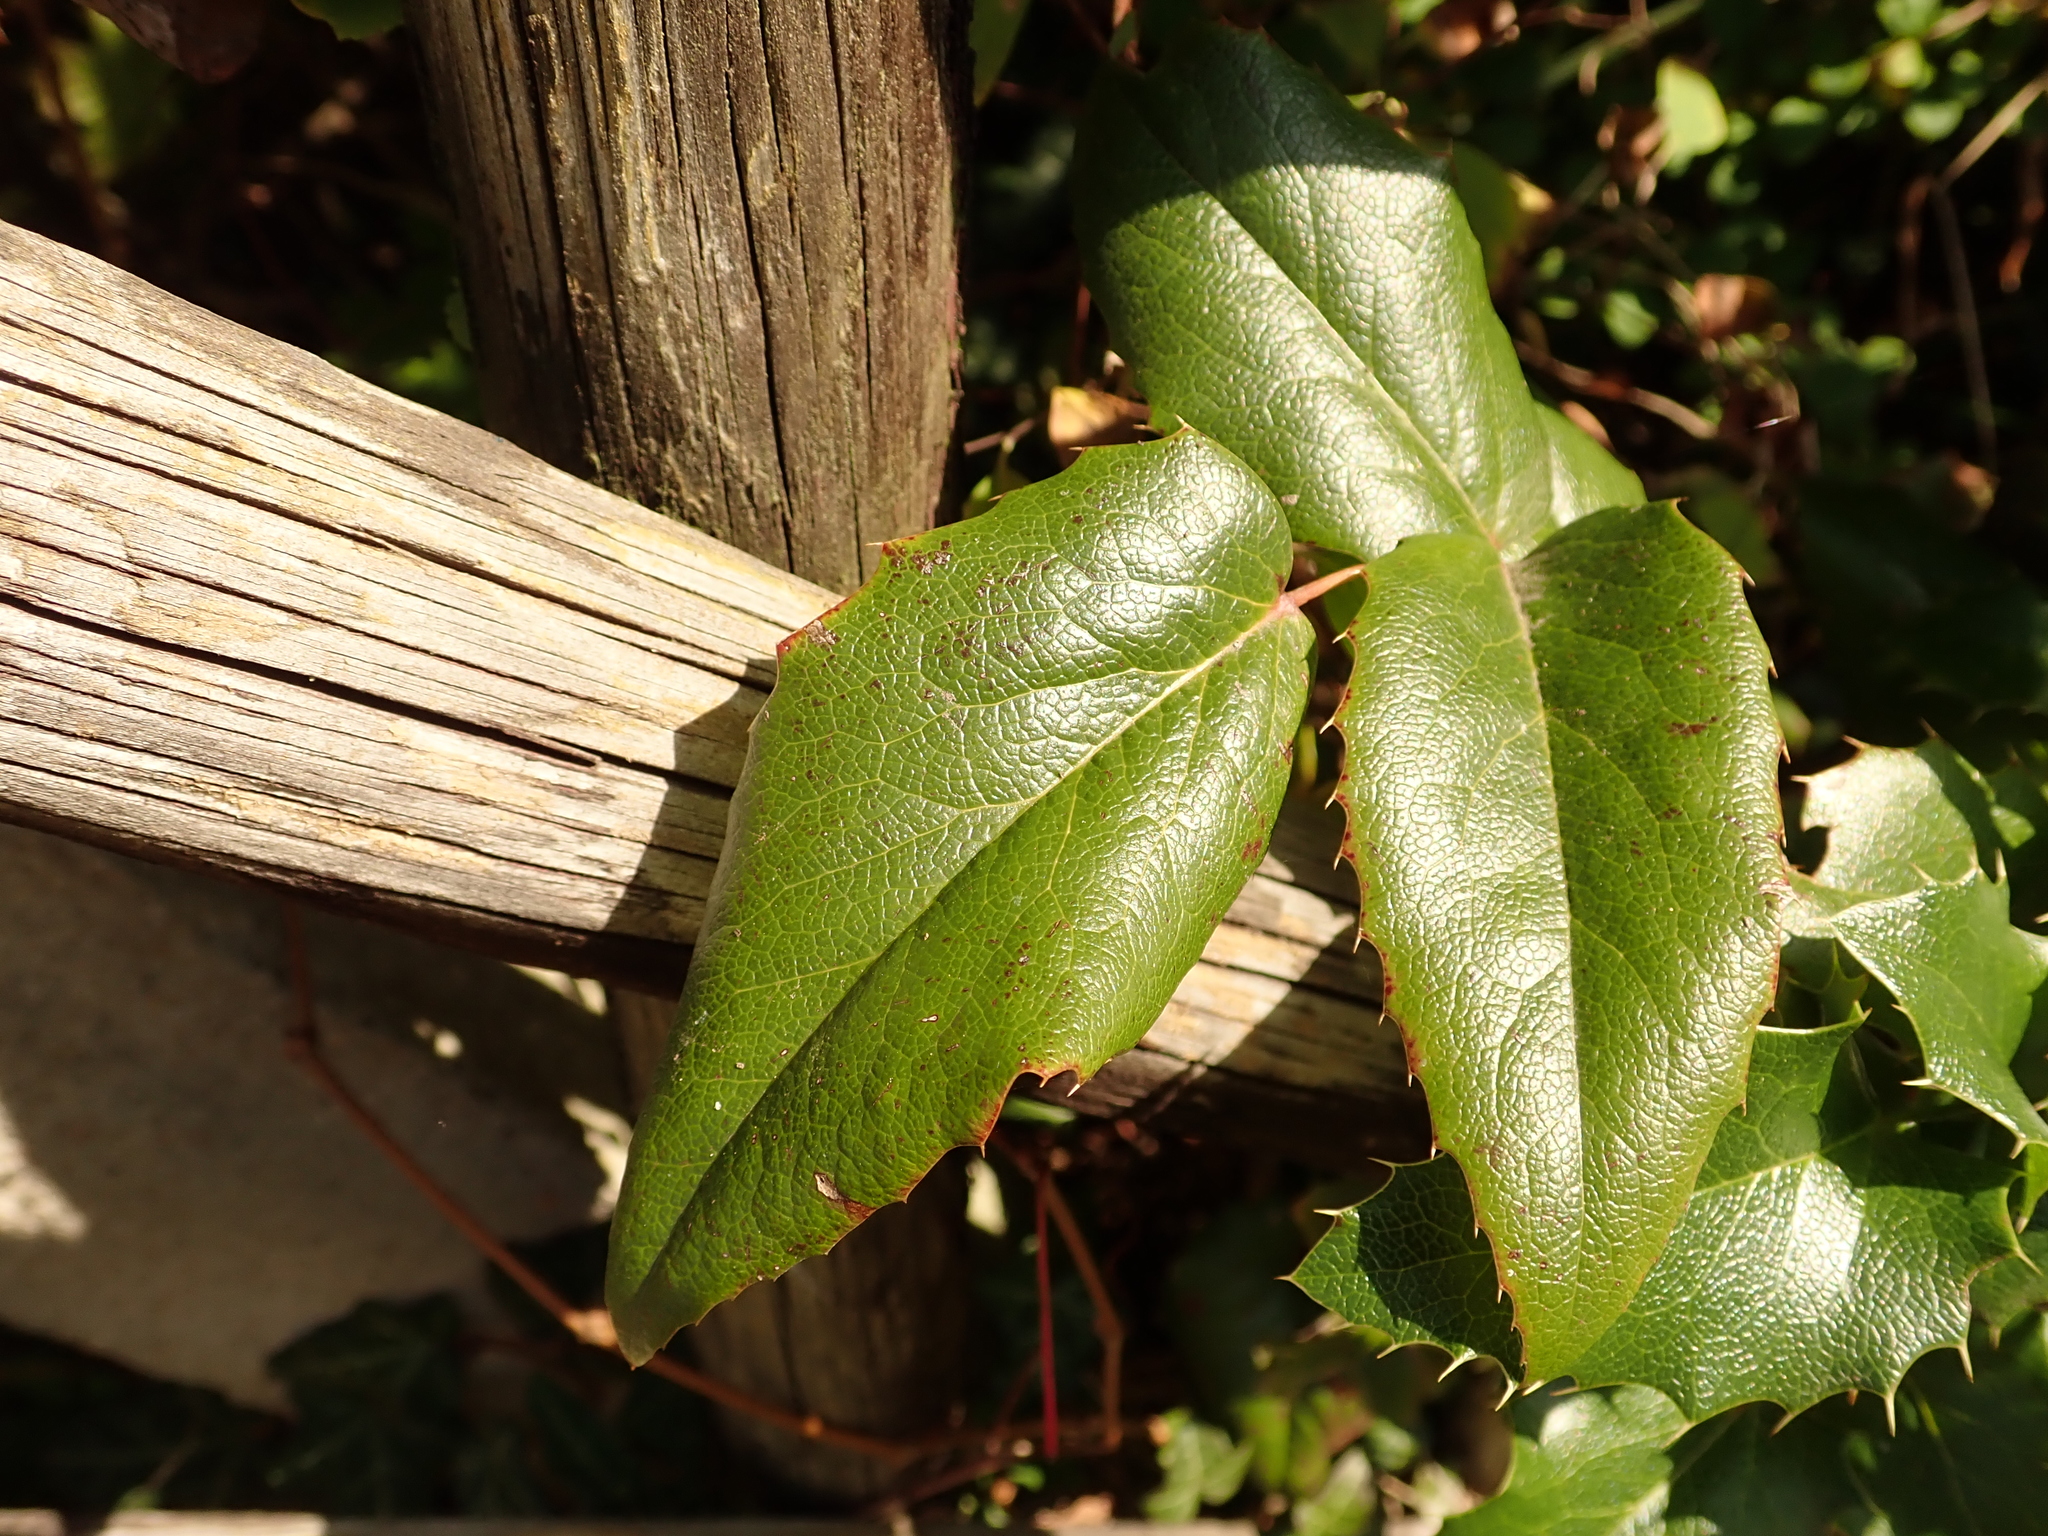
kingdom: Plantae
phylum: Tracheophyta
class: Magnoliopsida
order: Ranunculales
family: Berberidaceae
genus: Mahonia
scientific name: Mahonia aquifolium
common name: Oregon-grape
